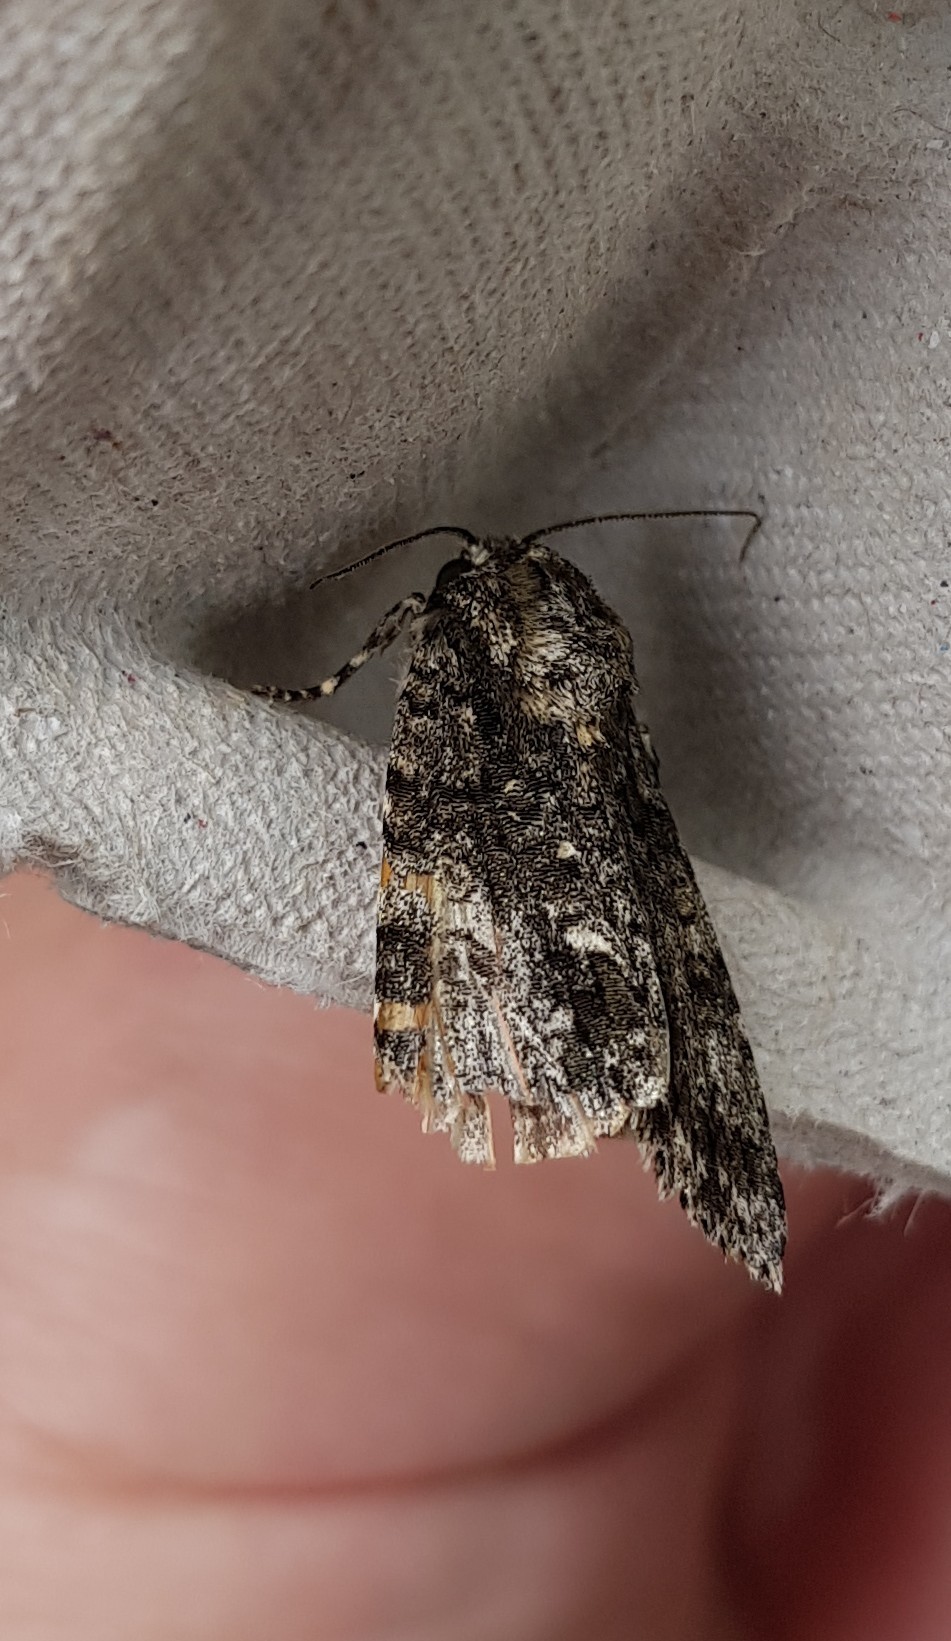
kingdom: Animalia
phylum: Arthropoda
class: Insecta
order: Lepidoptera
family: Noctuidae
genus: Acronicta
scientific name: Acronicta rumicis
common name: Knot grass
